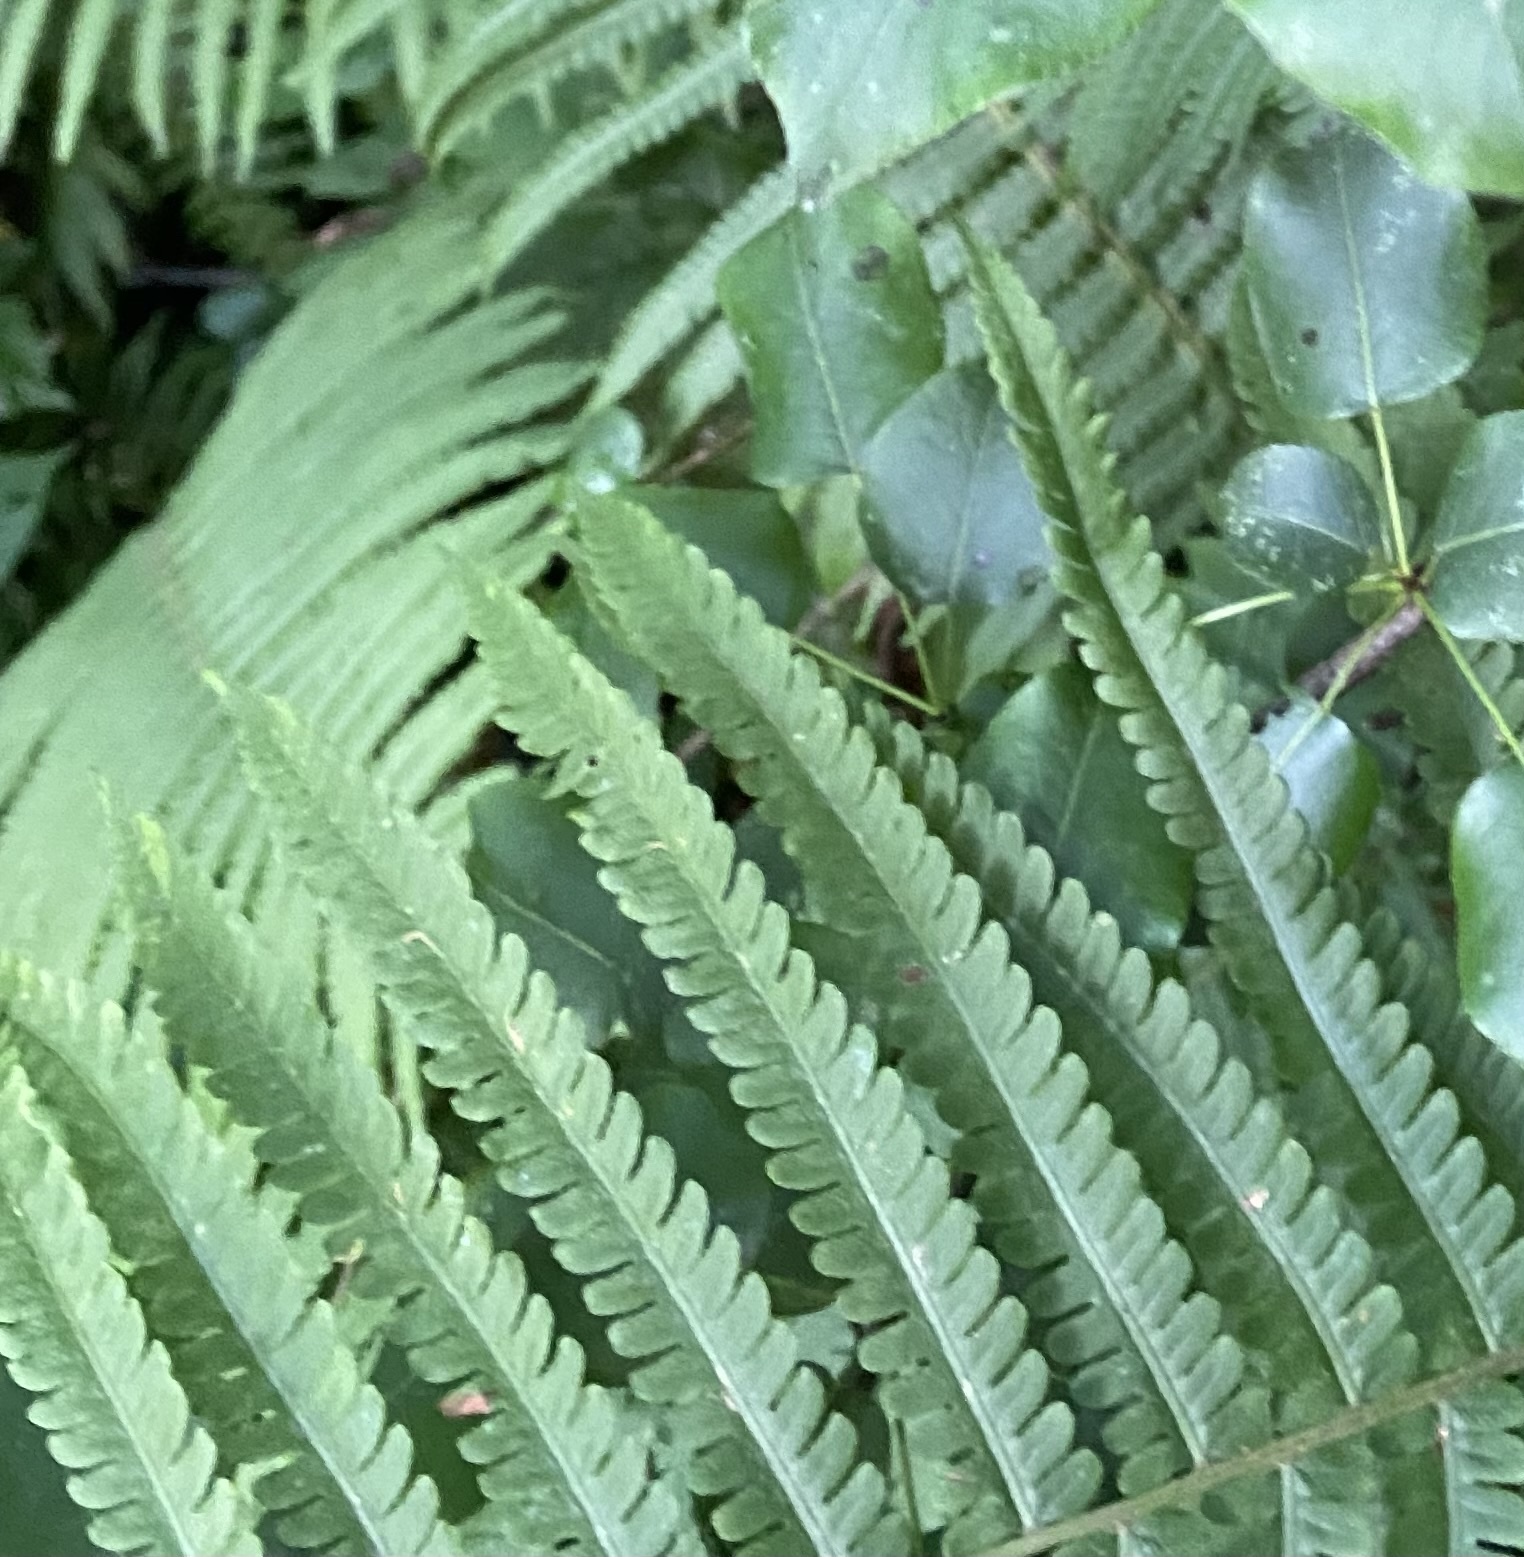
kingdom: Plantae
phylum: Tracheophyta
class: Polypodiopsida
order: Polypodiales
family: Onocleaceae
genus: Matteuccia
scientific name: Matteuccia struthiopteris
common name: Ostrich fern
